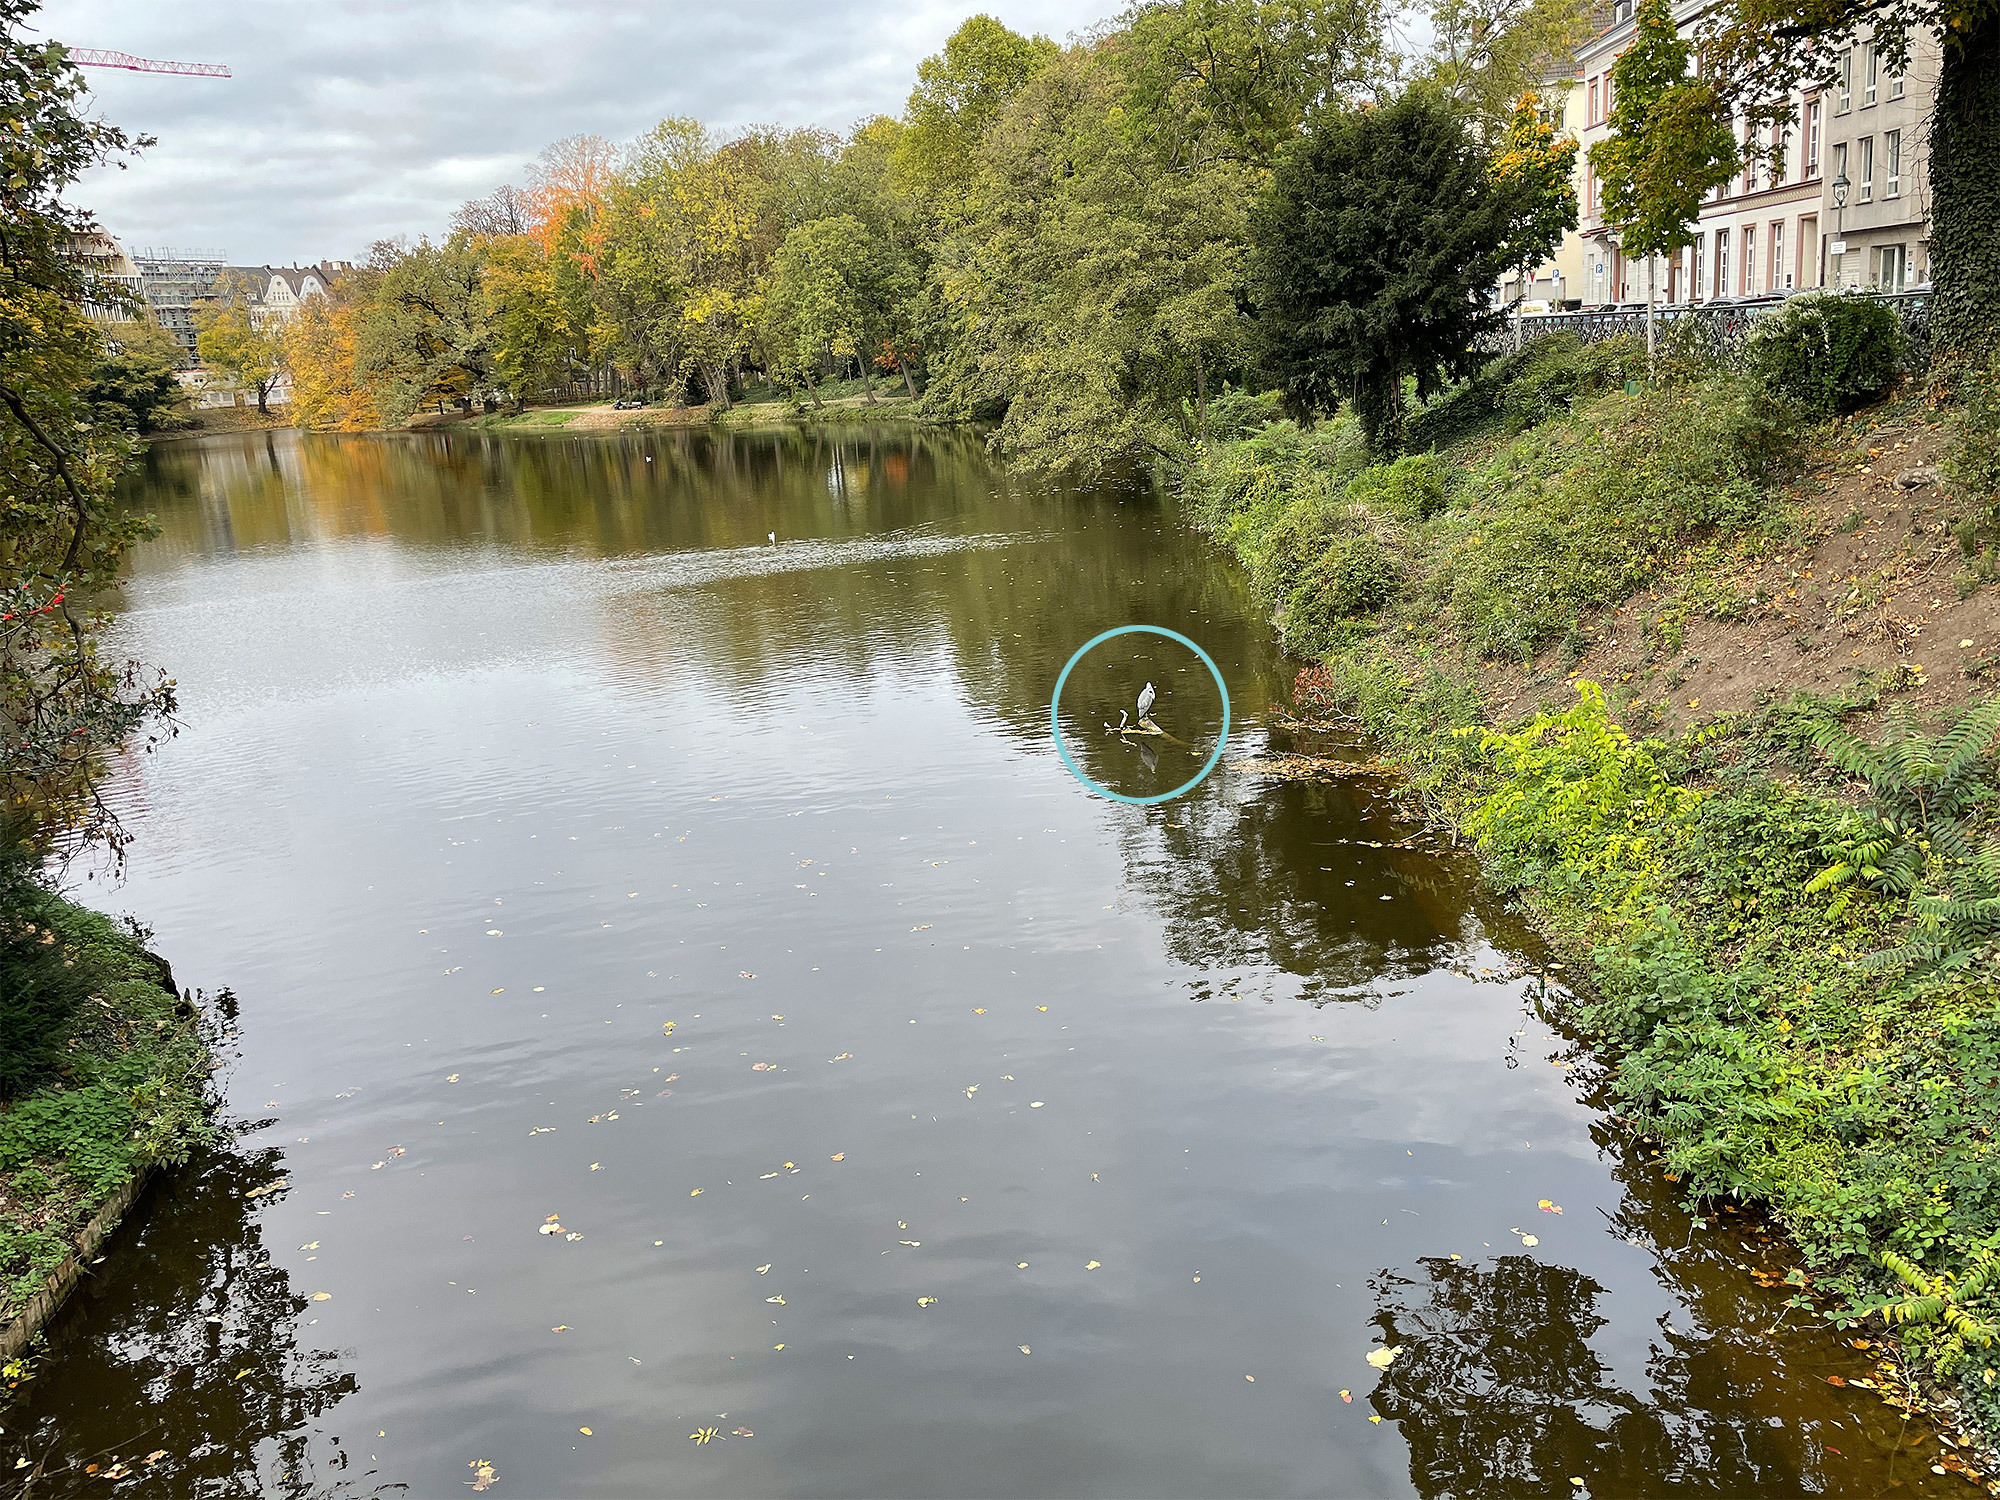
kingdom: Animalia
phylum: Chordata
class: Aves
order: Pelecaniformes
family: Ardeidae
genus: Ardea
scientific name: Ardea cinerea
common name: Grey heron
